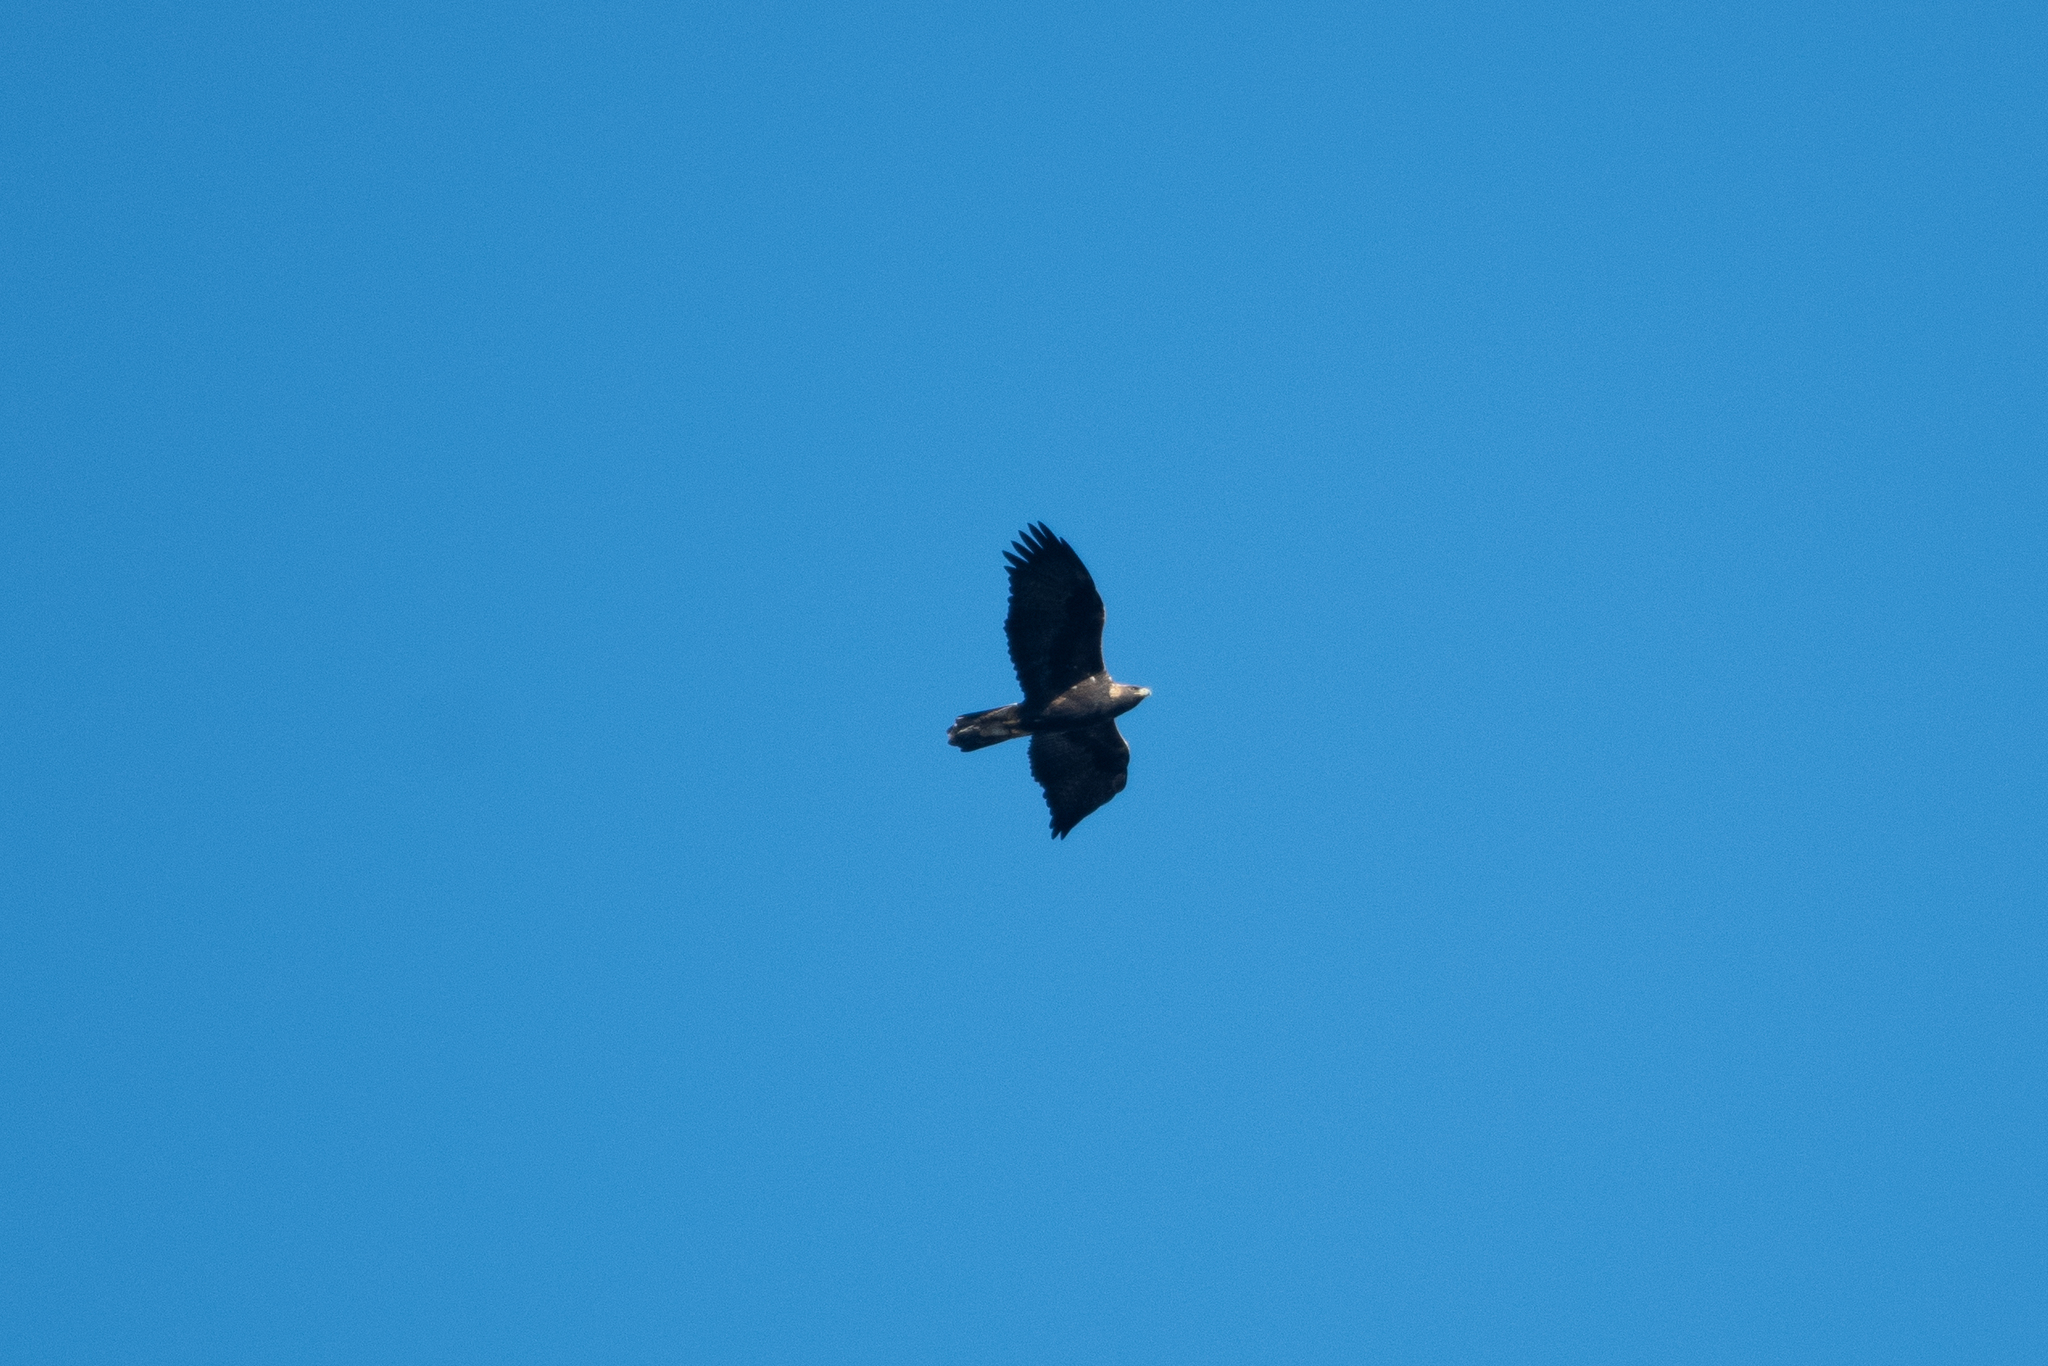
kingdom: Animalia
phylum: Chordata
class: Aves
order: Accipitriformes
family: Accipitridae
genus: Aquila
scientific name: Aquila chrysaetos
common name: Golden eagle
